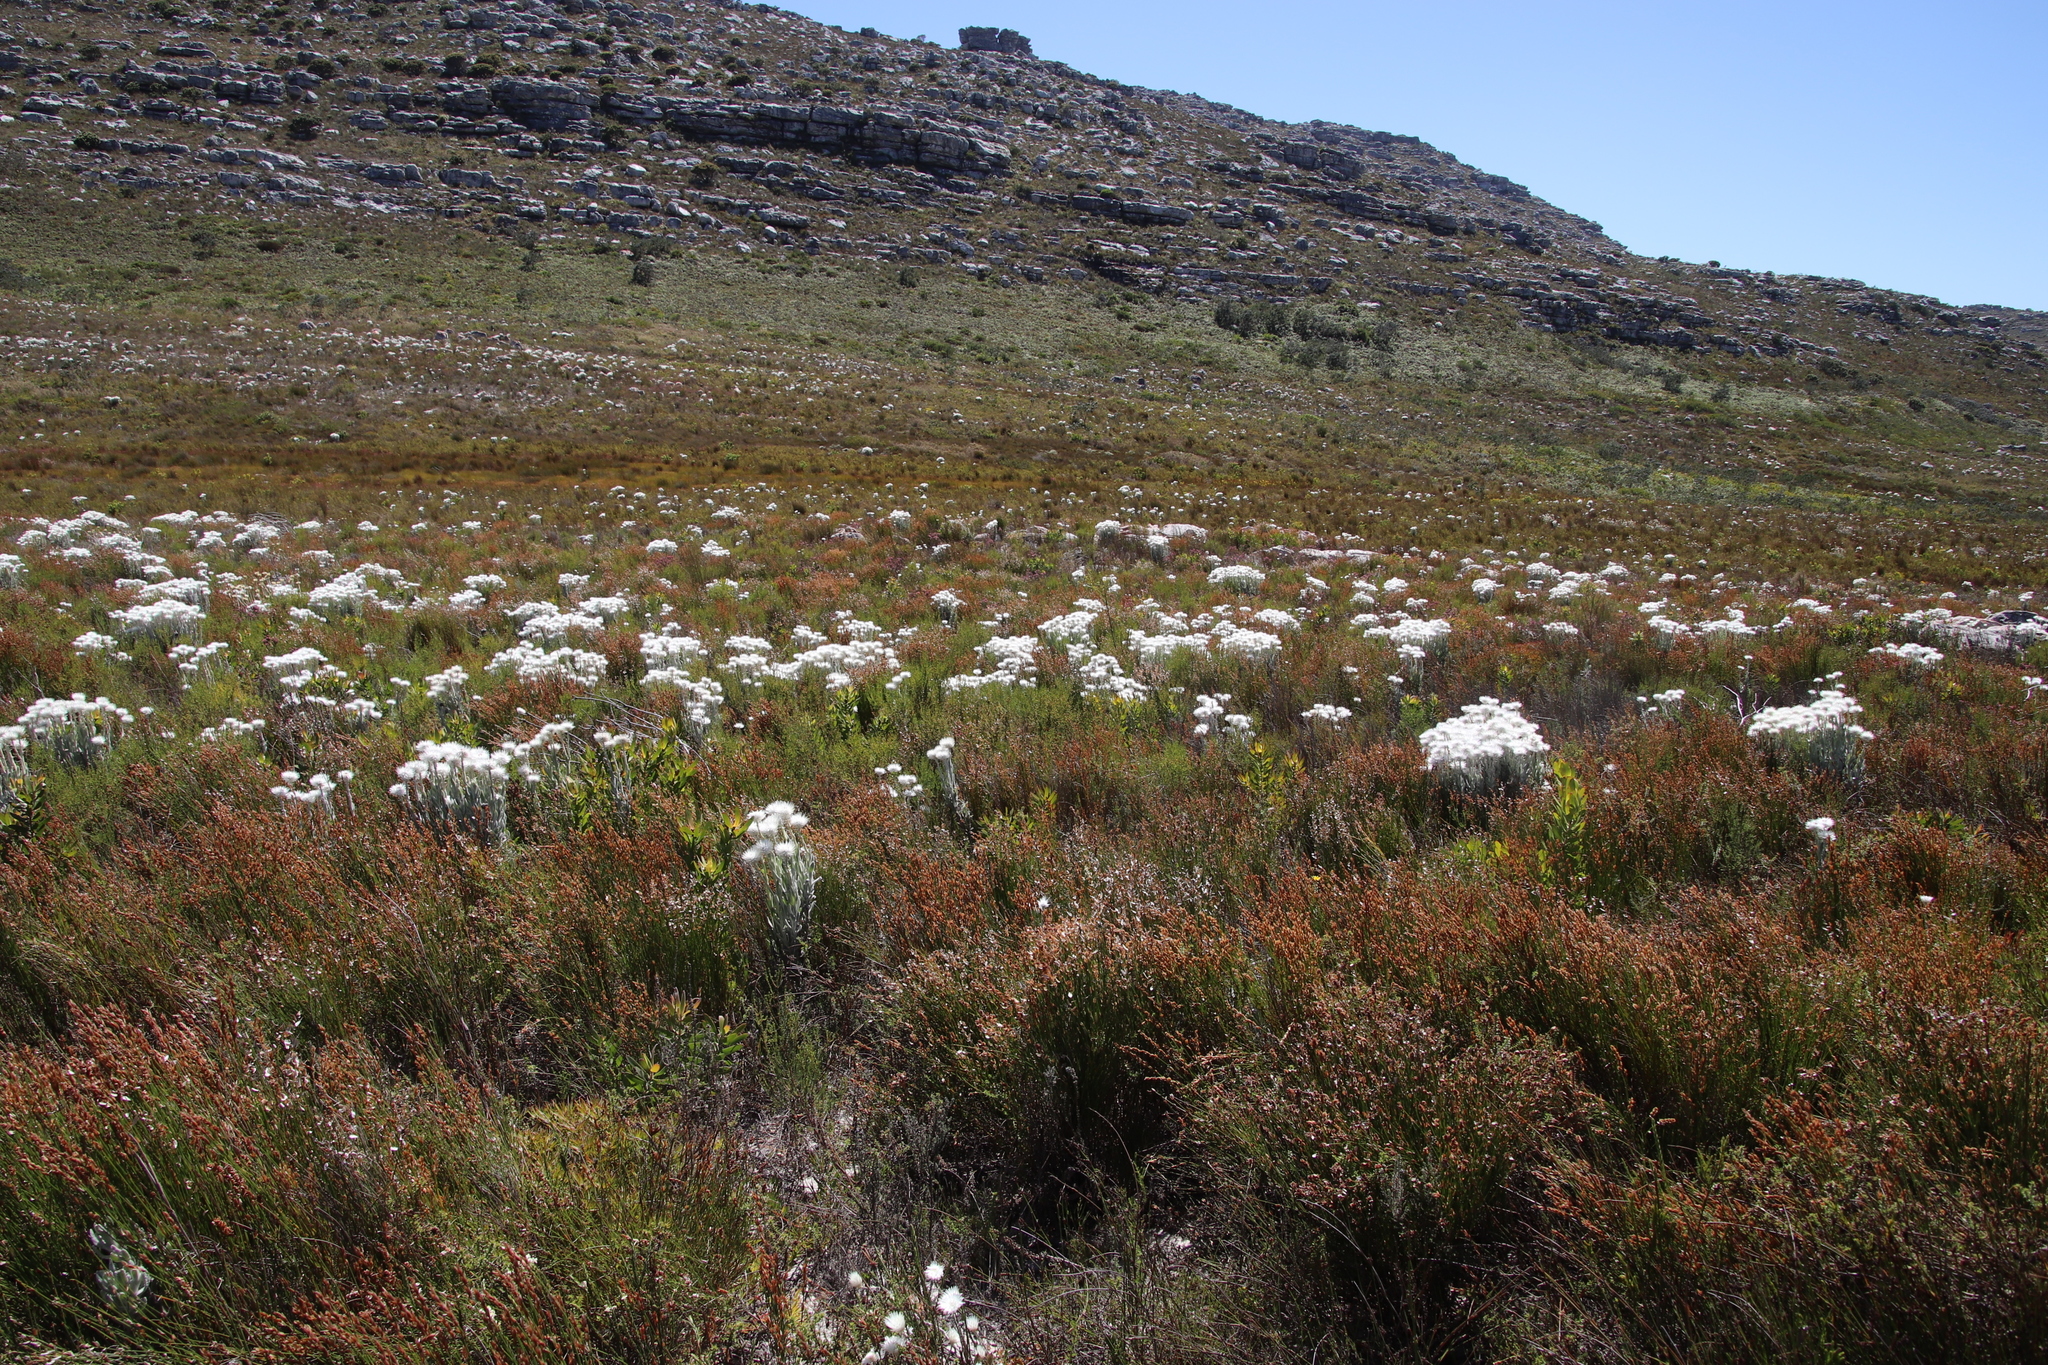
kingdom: Plantae
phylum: Tracheophyta
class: Magnoliopsida
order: Asterales
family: Asteraceae
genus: Syncarpha
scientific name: Syncarpha vestita
